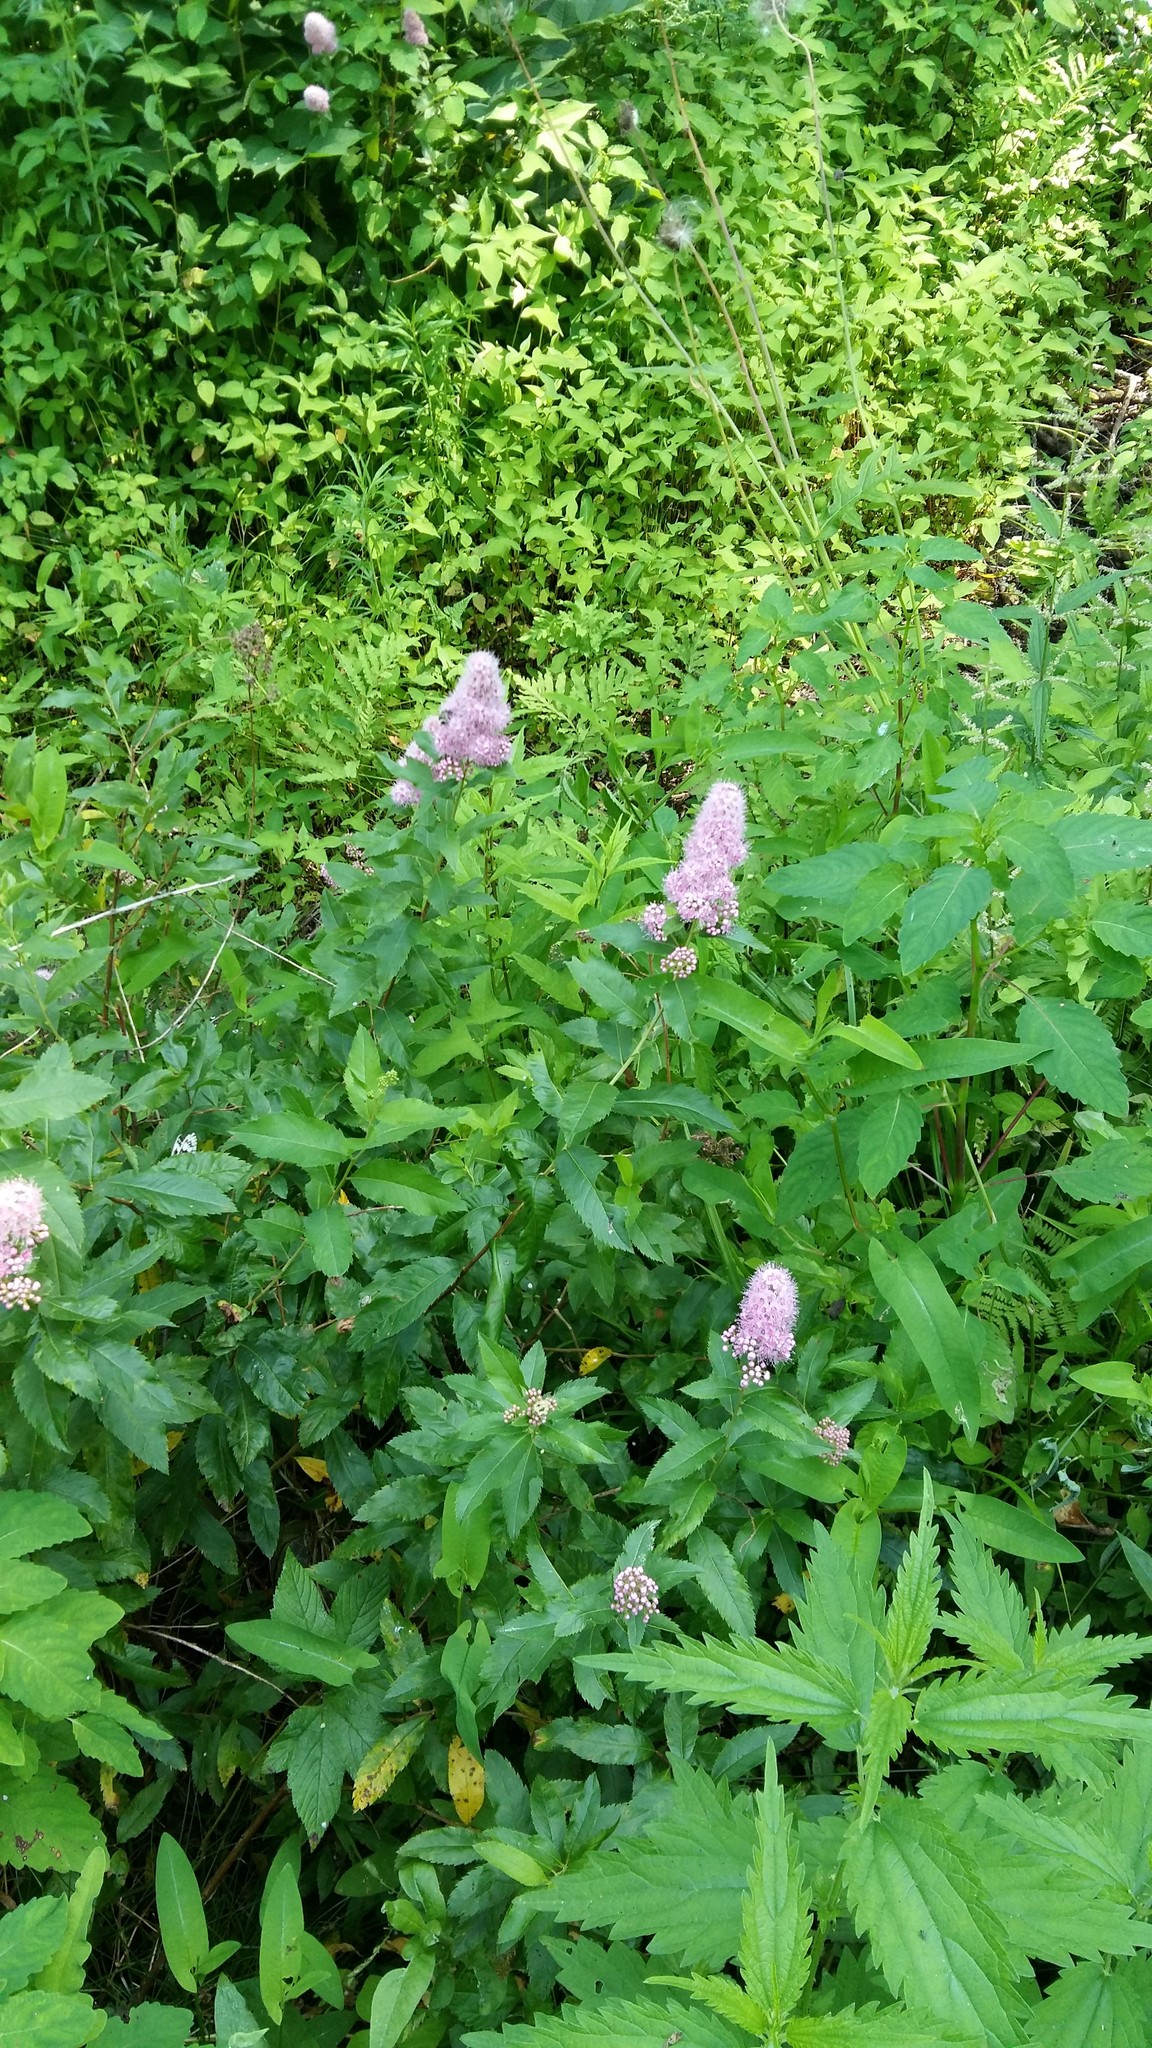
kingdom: Plantae
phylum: Tracheophyta
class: Magnoliopsida
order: Rosales
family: Rosaceae
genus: Spiraea
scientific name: Spiraea salicifolia
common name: Bridewort
